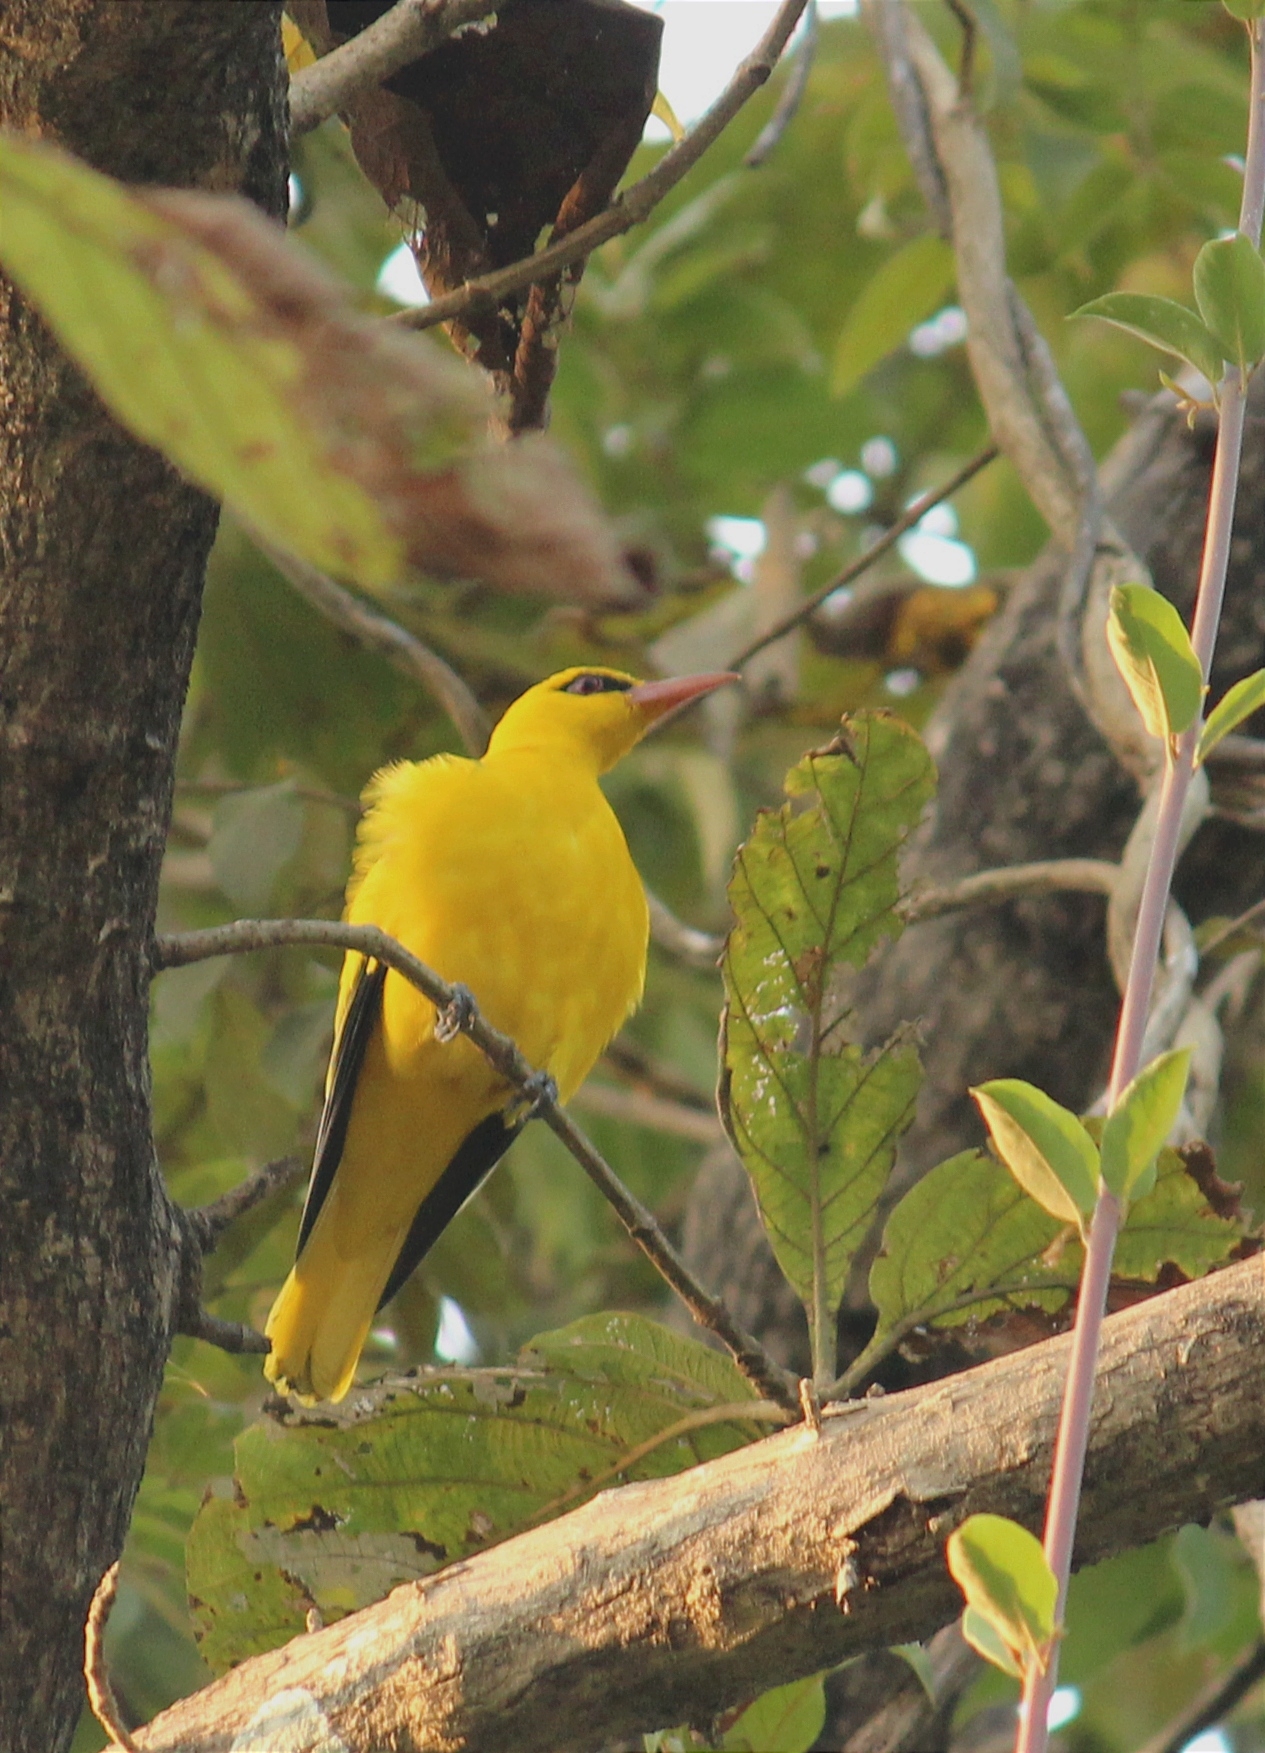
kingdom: Animalia
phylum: Chordata
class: Aves
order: Passeriformes
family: Oriolidae
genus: Oriolus
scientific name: Oriolus kundoo
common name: Indian golden oriole
